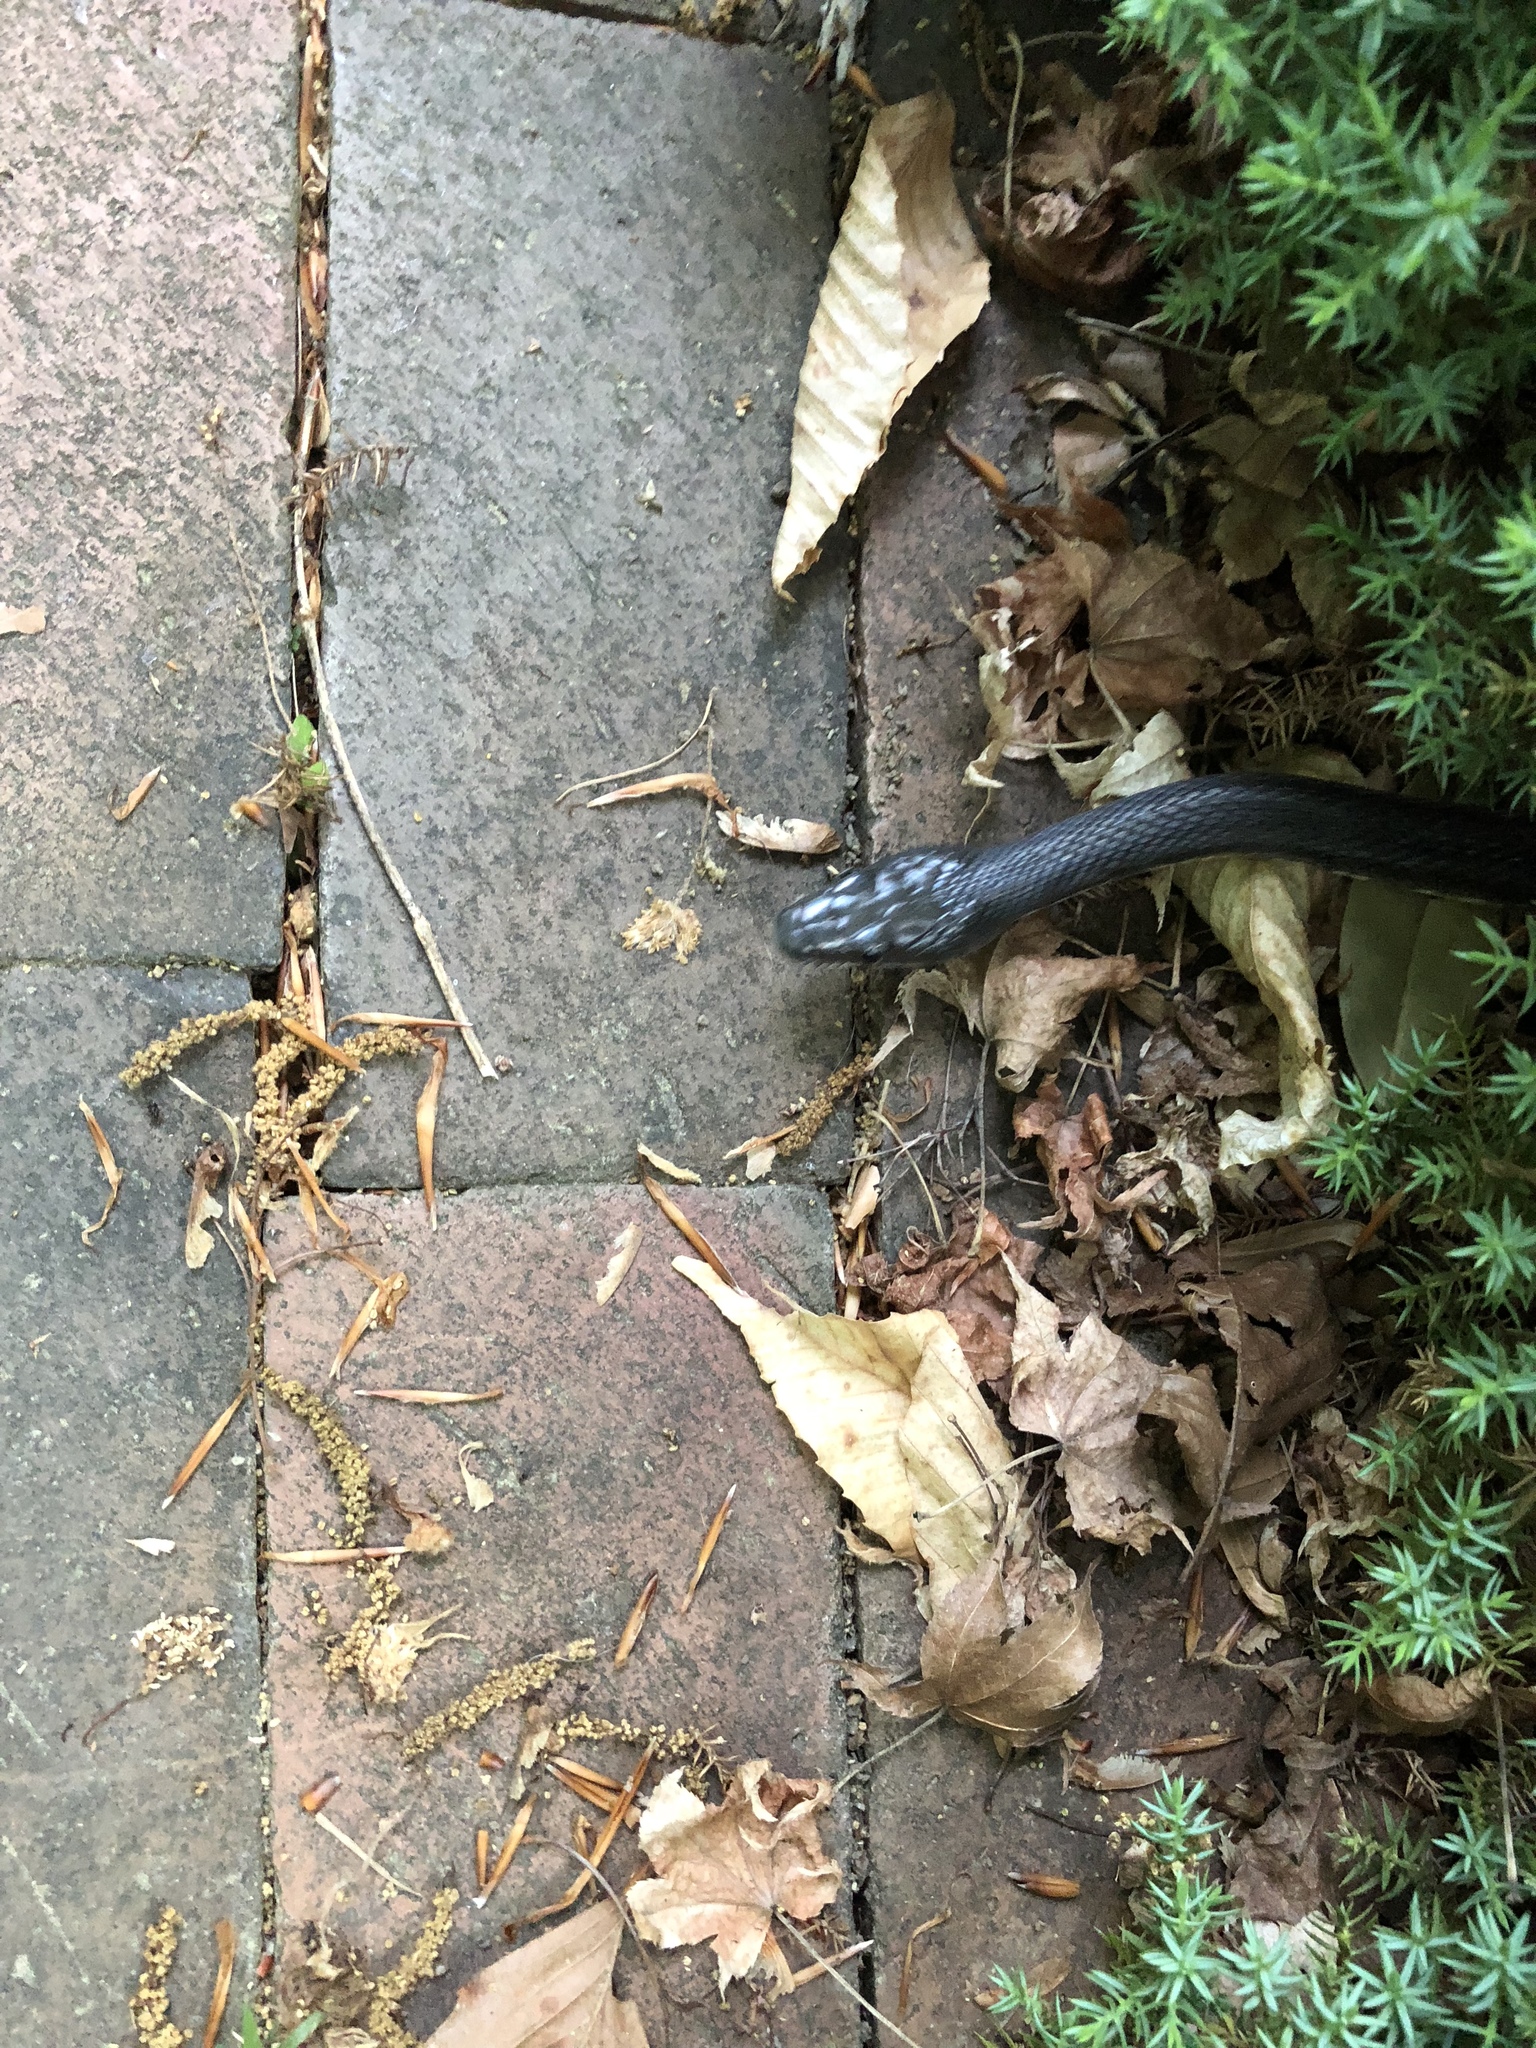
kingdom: Animalia
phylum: Chordata
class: Squamata
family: Colubridae
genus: Pantherophis
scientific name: Pantherophis alleghaniensis
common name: Eastern rat snake
